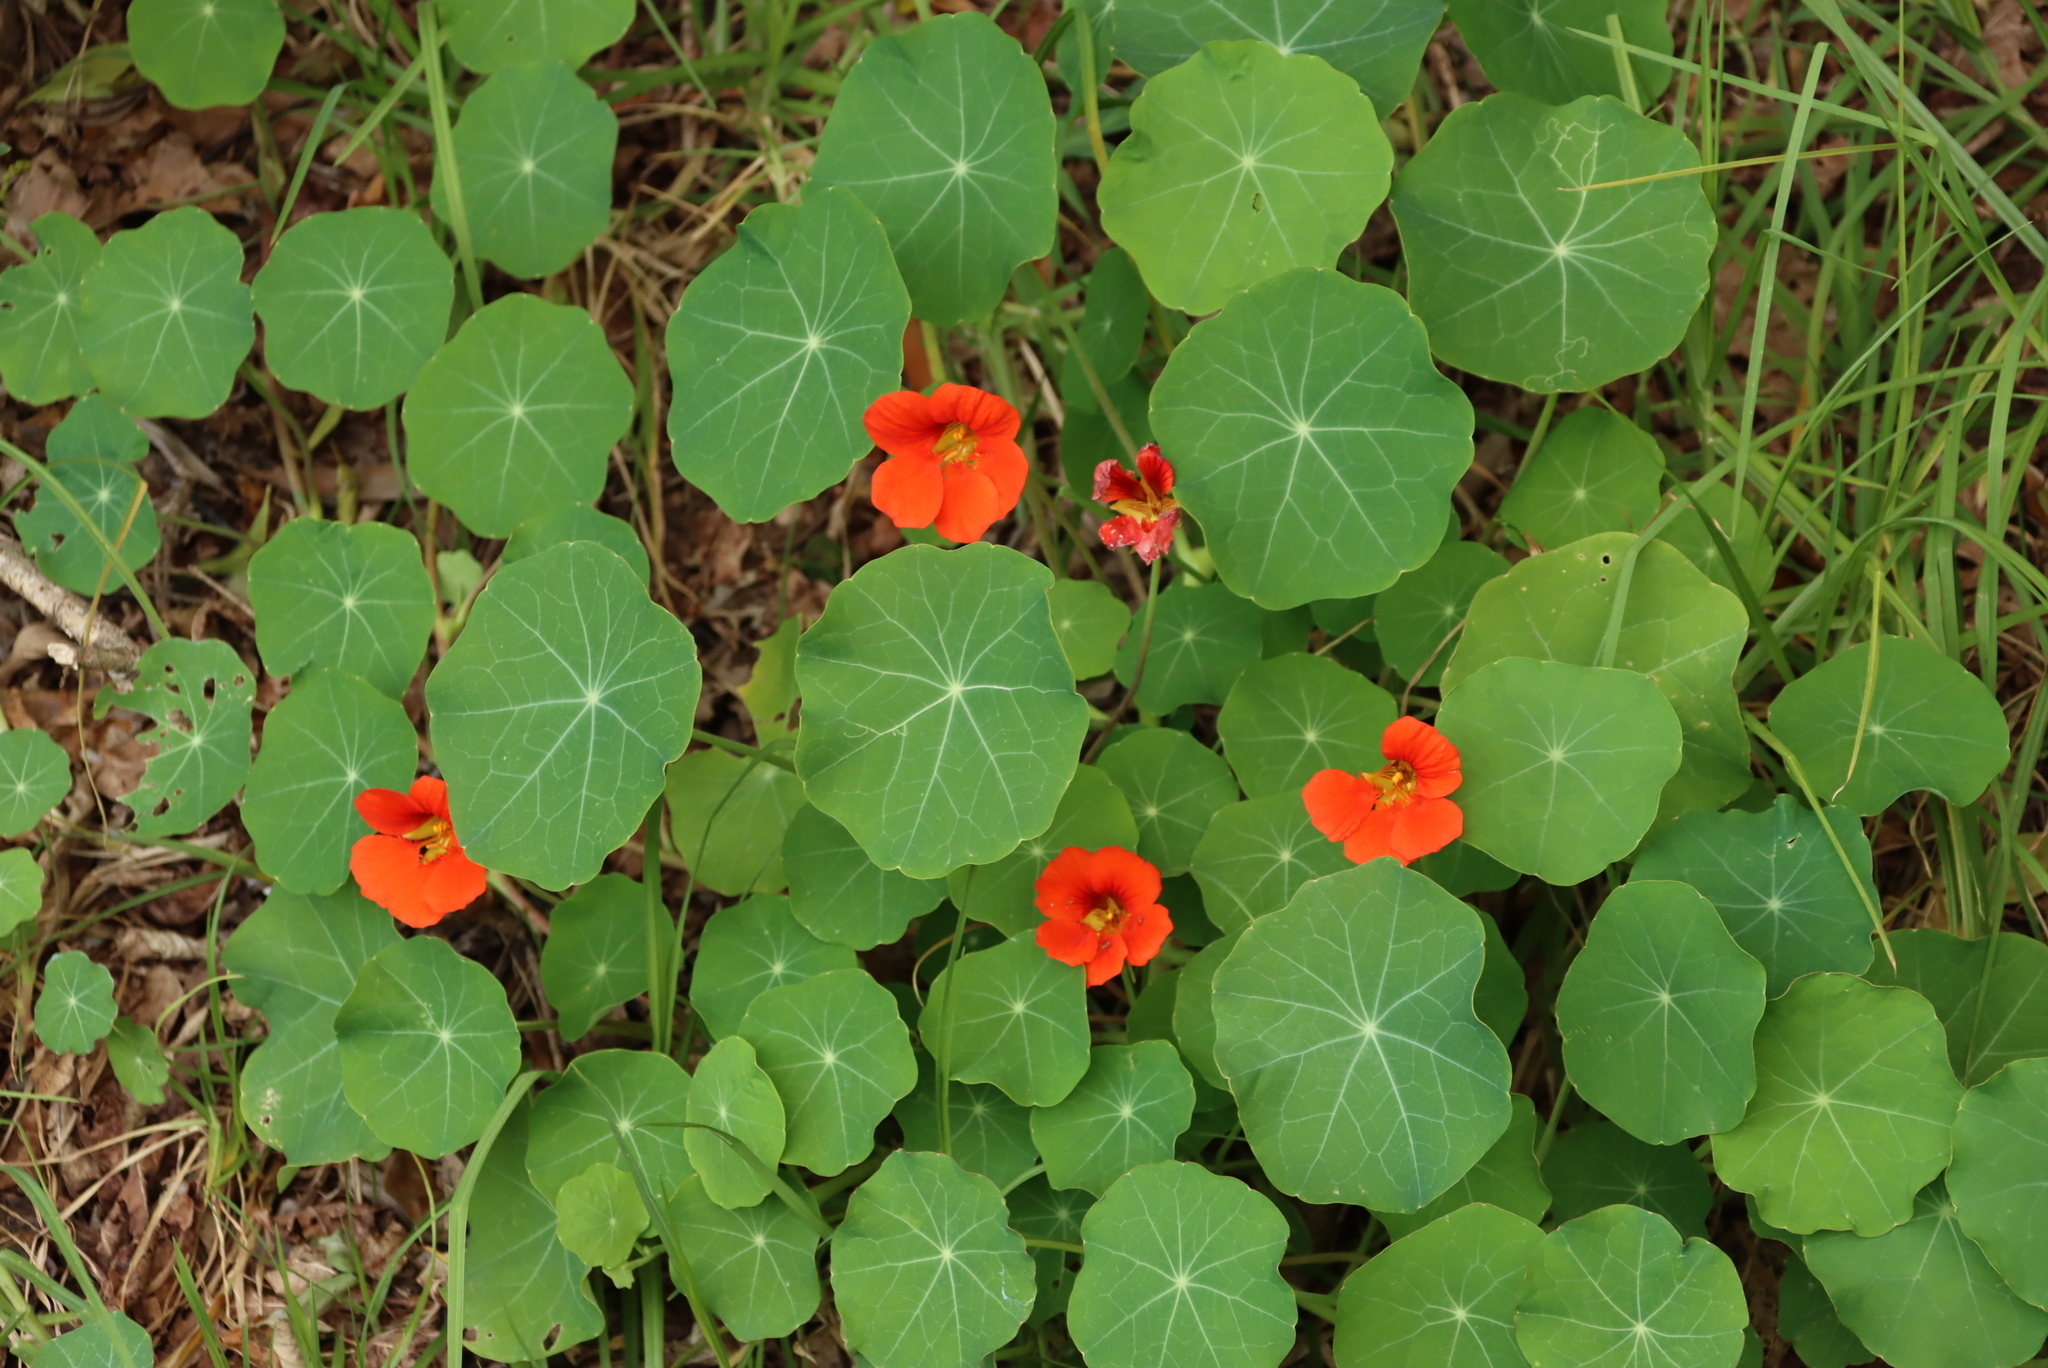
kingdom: Plantae
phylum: Tracheophyta
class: Magnoliopsida
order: Brassicales
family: Tropaeolaceae
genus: Tropaeolum
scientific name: Tropaeolum majus
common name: Nasturtium
